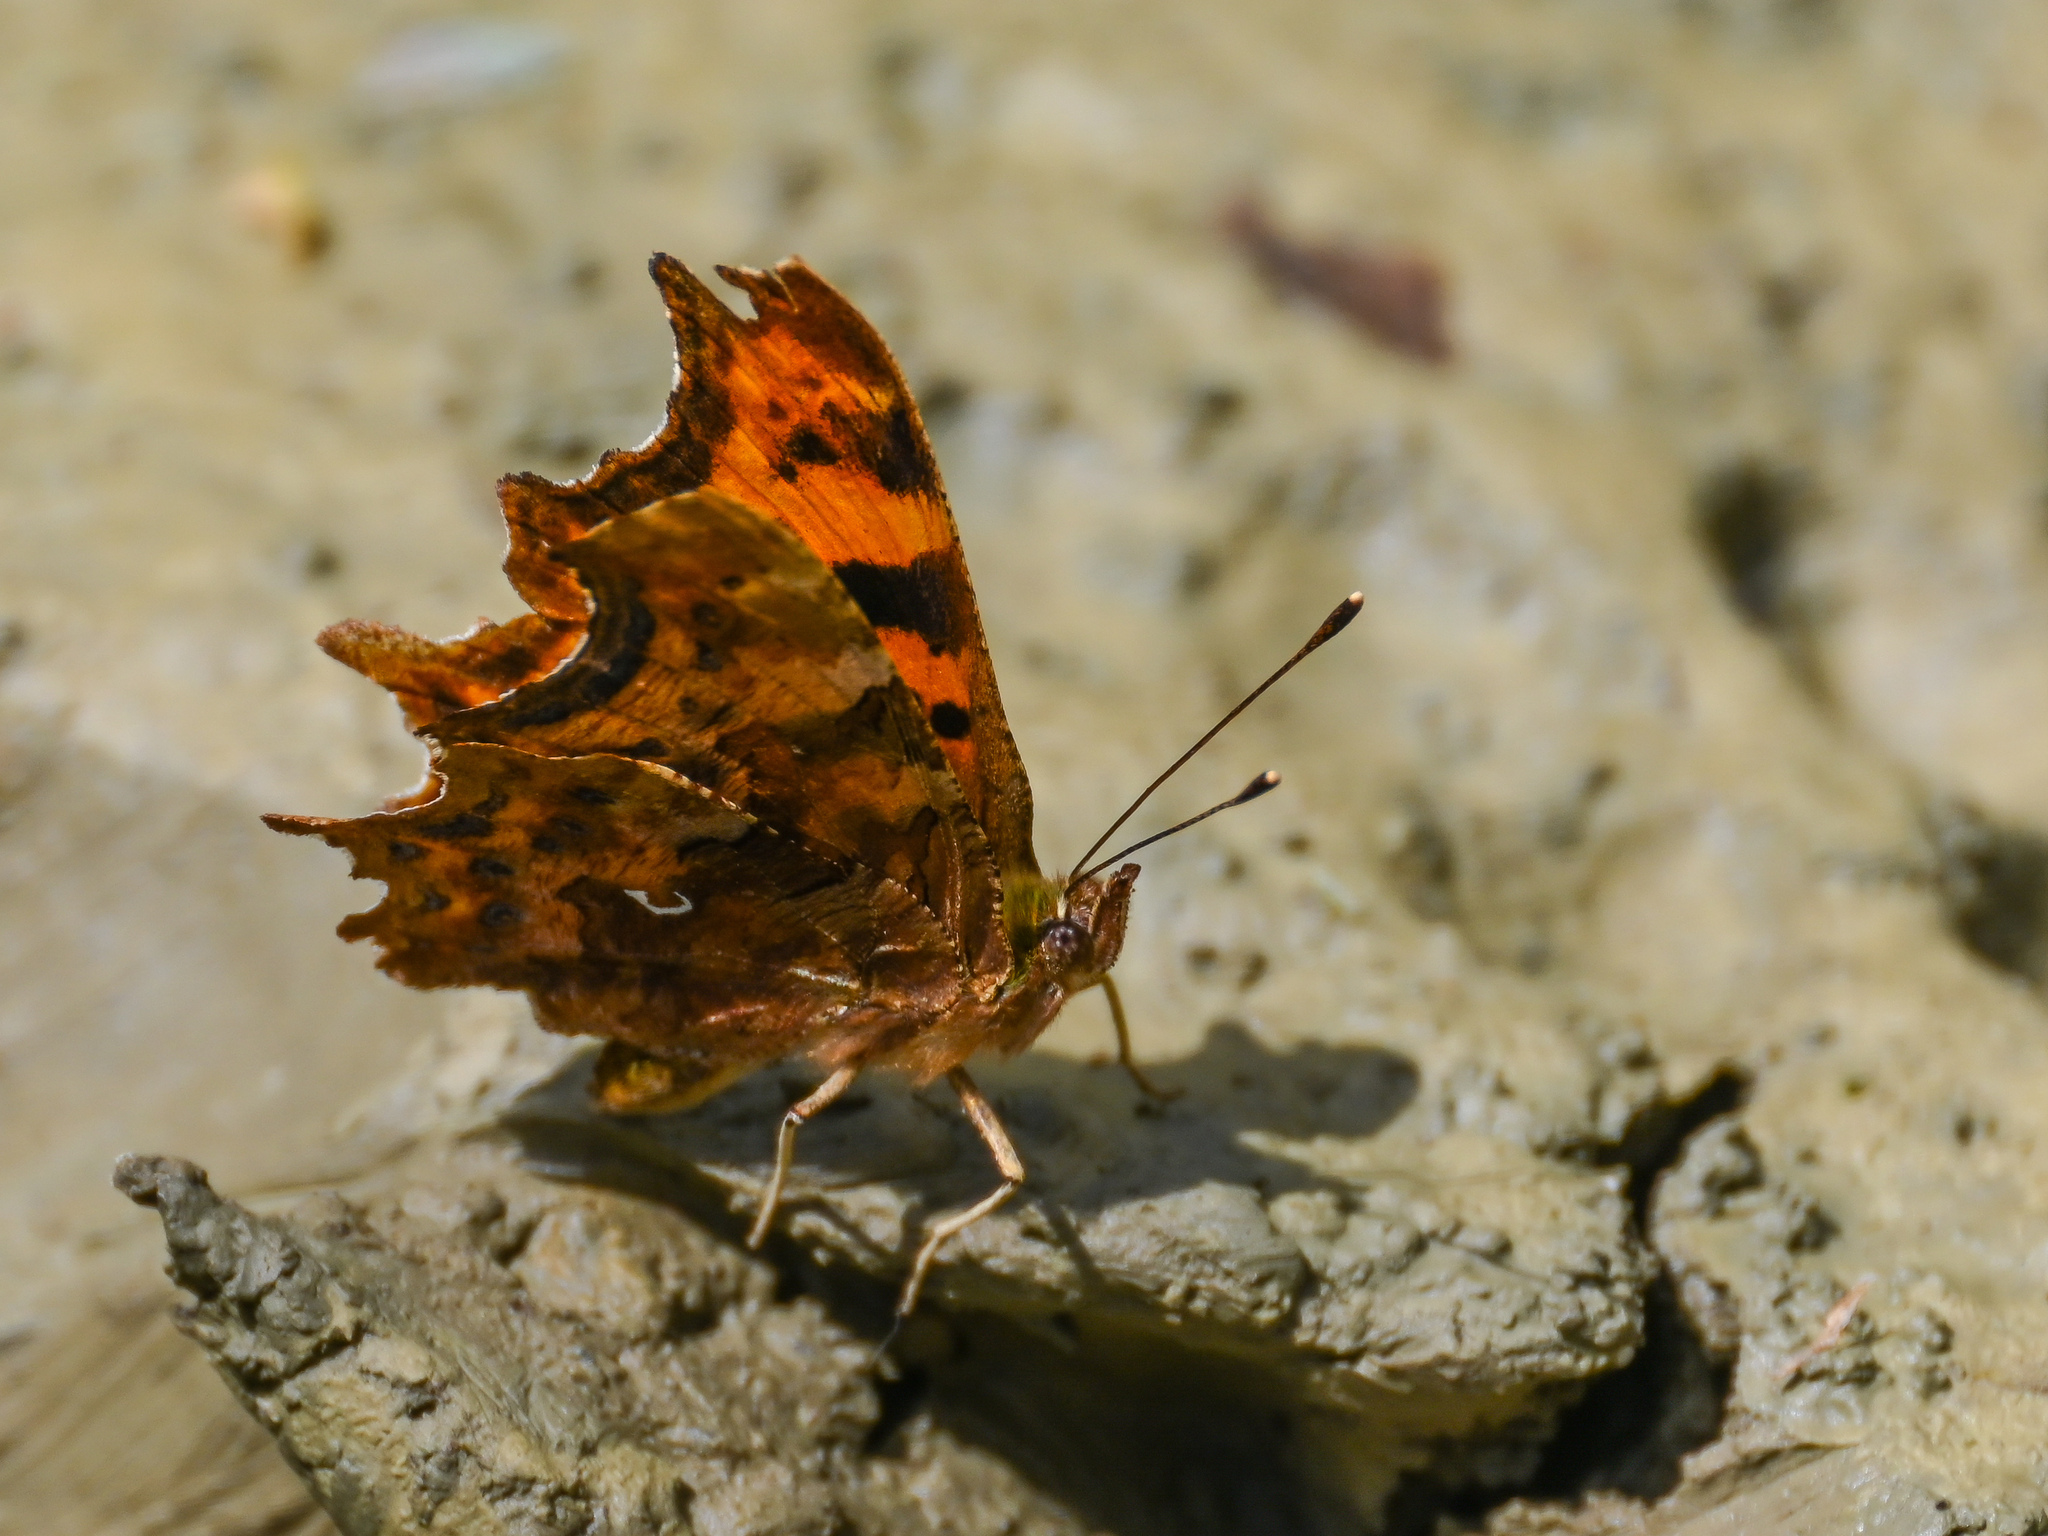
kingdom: Animalia
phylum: Arthropoda
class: Insecta
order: Lepidoptera
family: Nymphalidae
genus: Polygonia
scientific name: Polygonia c-album
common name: Comma
